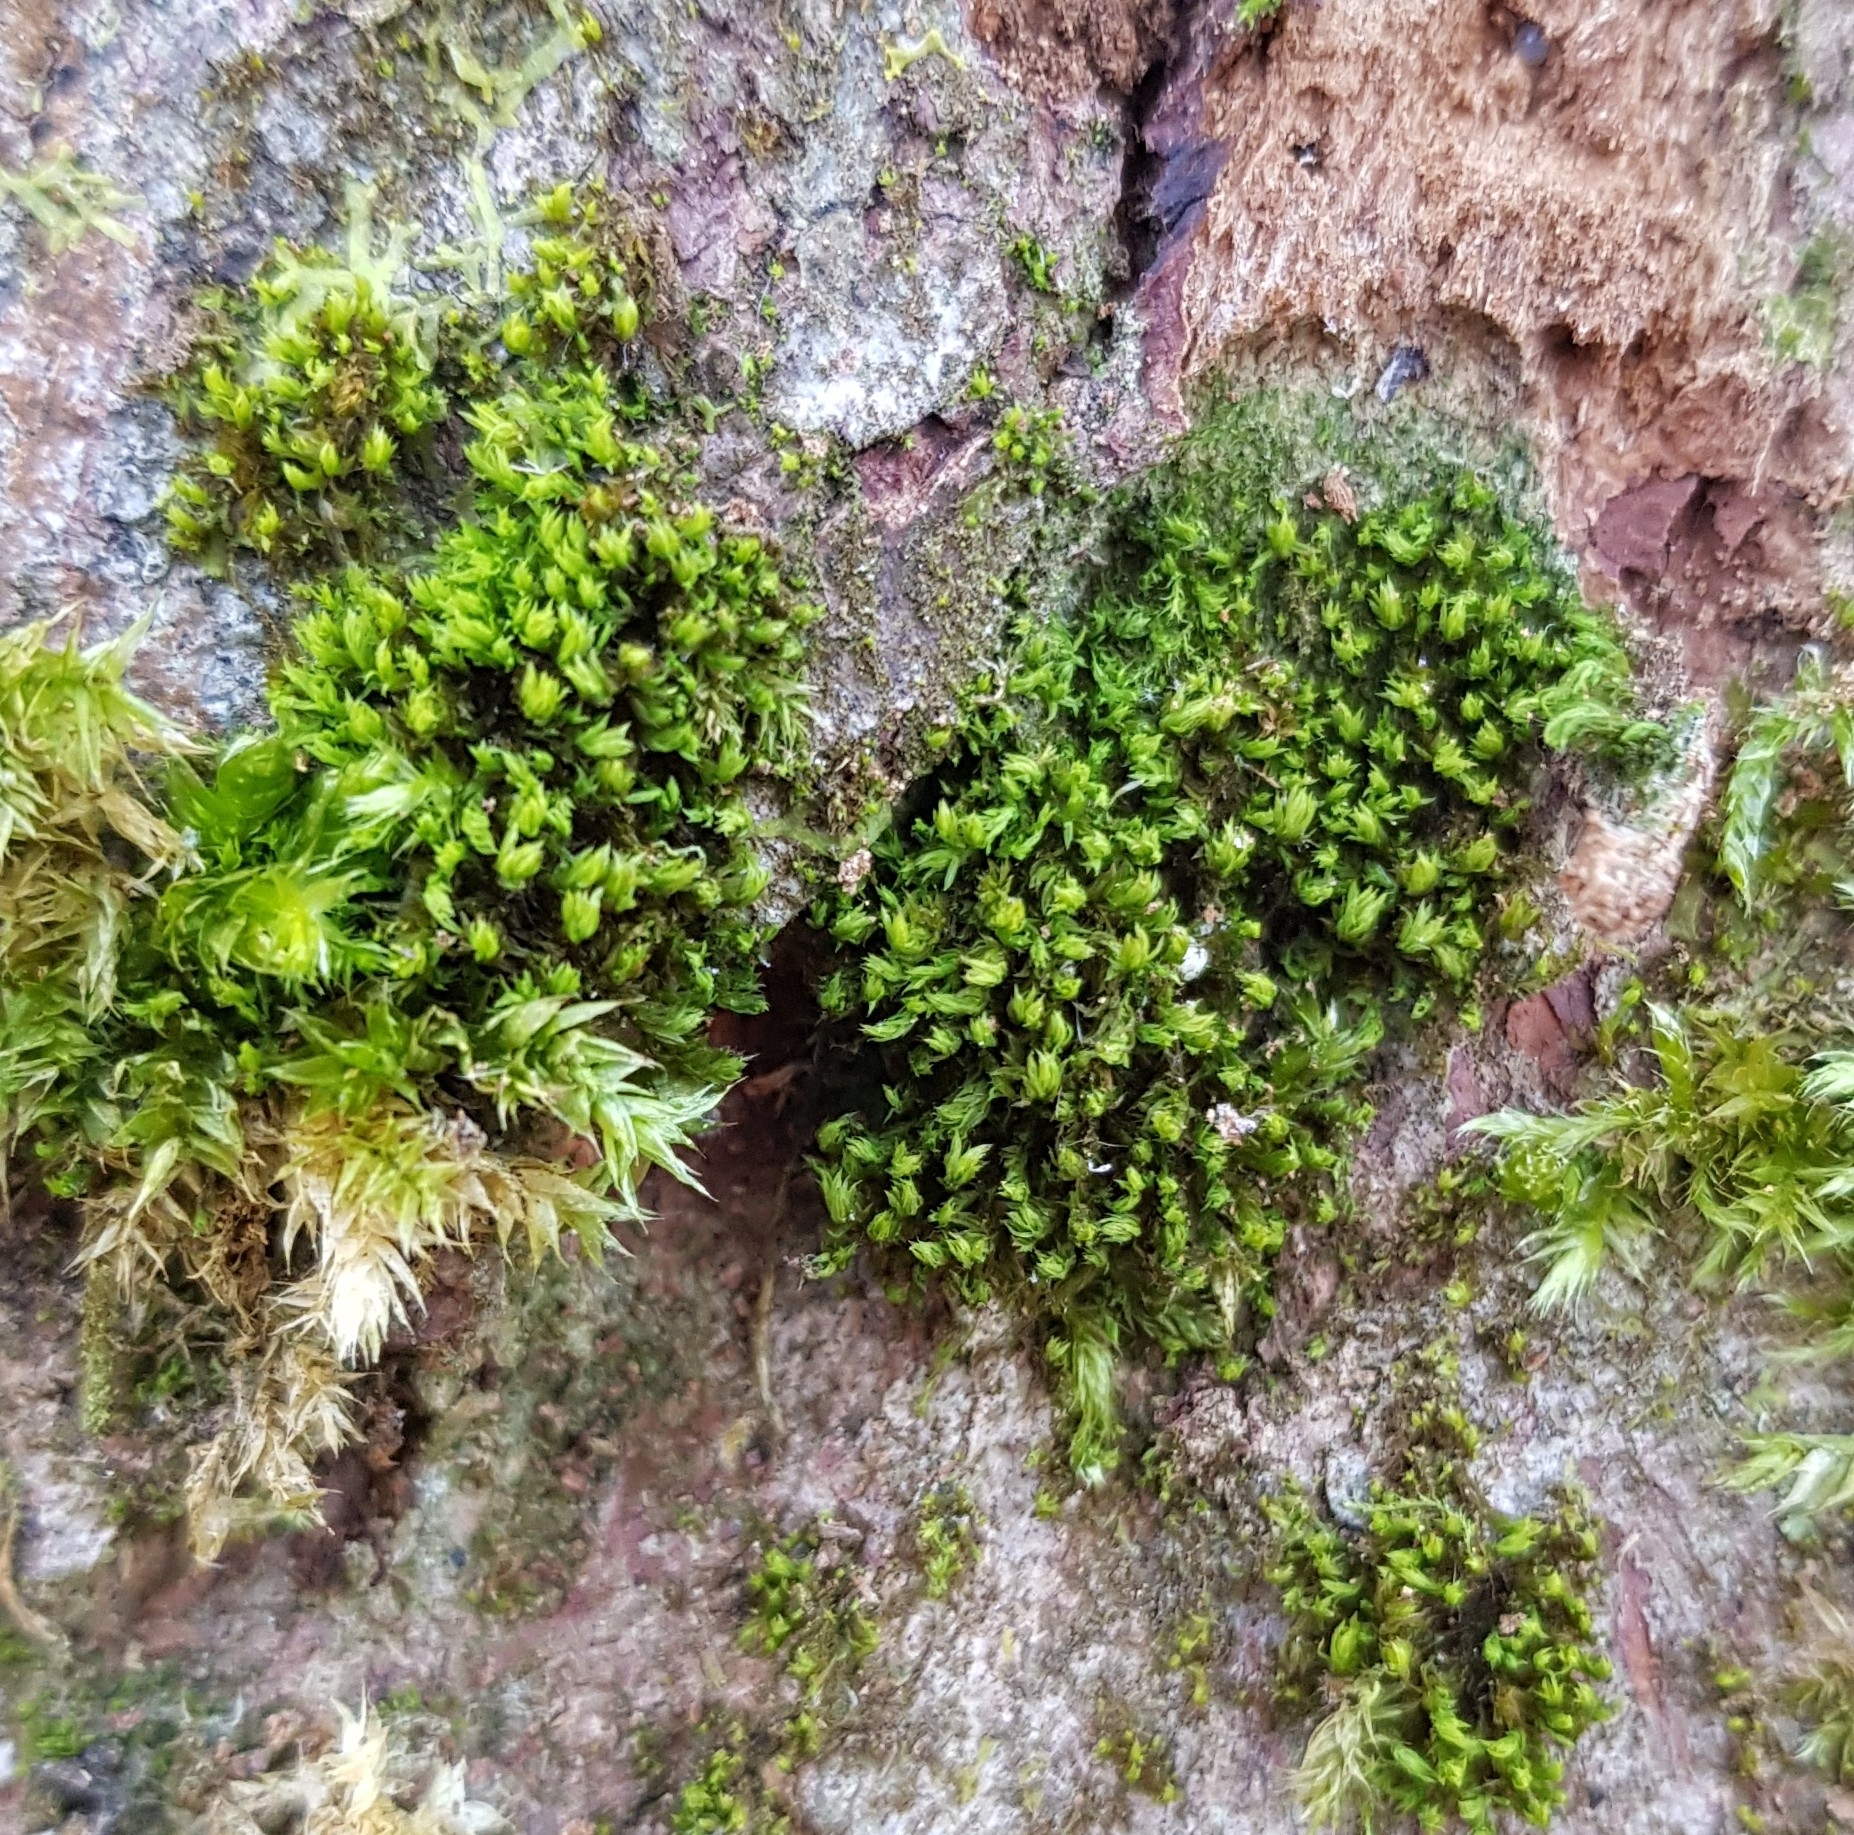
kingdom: Plantae
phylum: Bryophyta
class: Bryopsida
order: Orthotrichales
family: Orthotrichaceae
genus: Zygodon
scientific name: Zygodon viridissimus
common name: Green yoke moss
